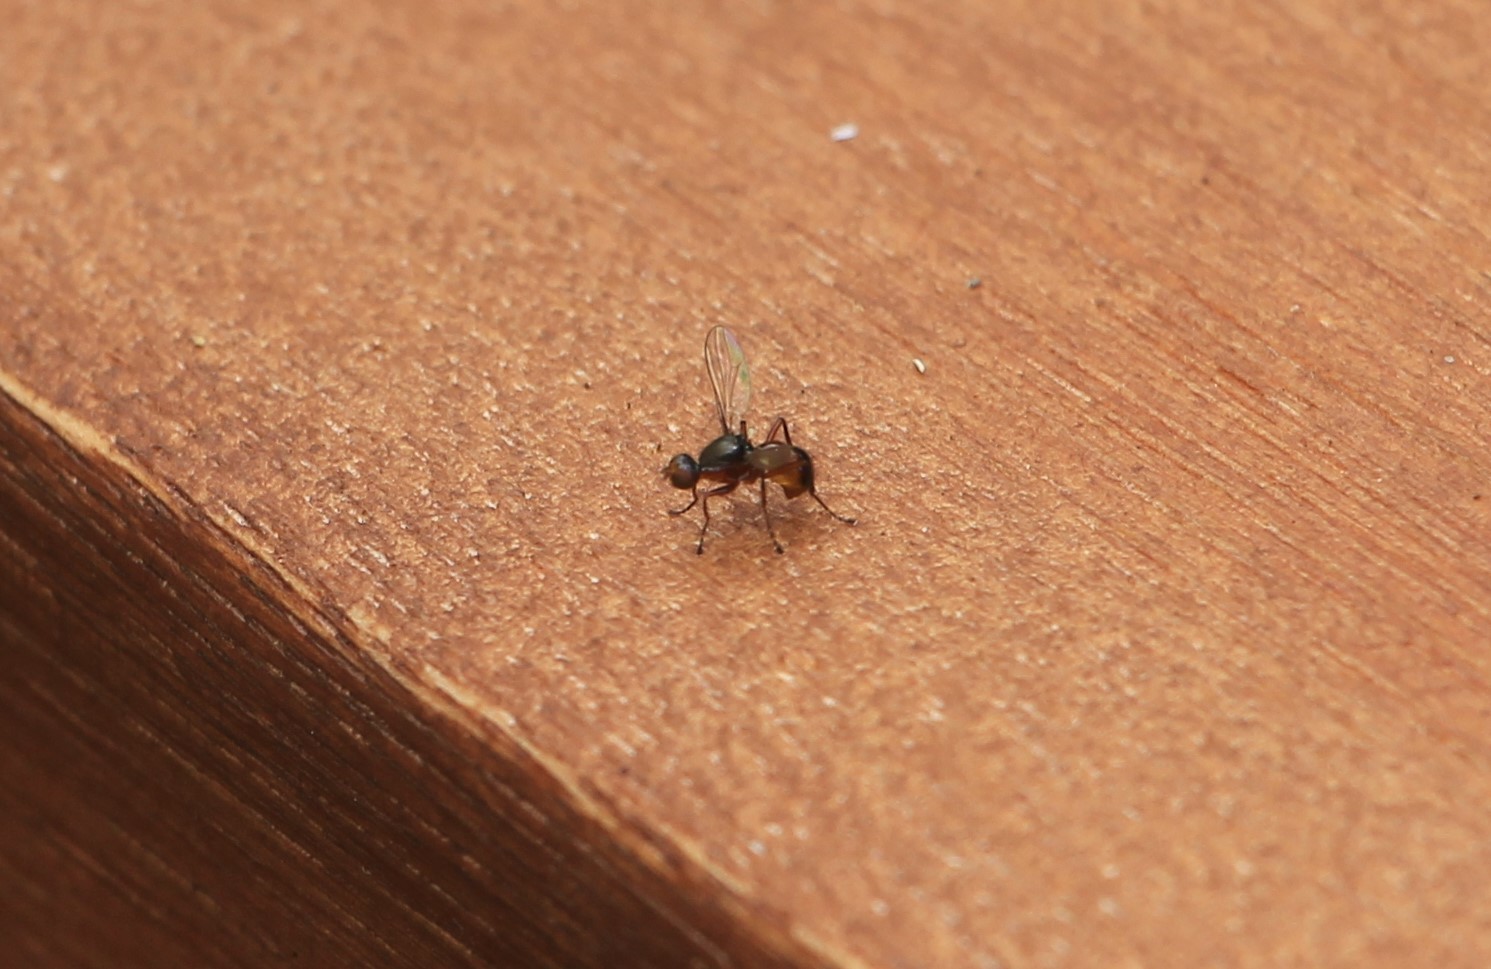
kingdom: Animalia
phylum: Arthropoda
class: Insecta
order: Diptera
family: Sepsidae
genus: Lasionemopoda
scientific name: Lasionemopoda hirsuta
